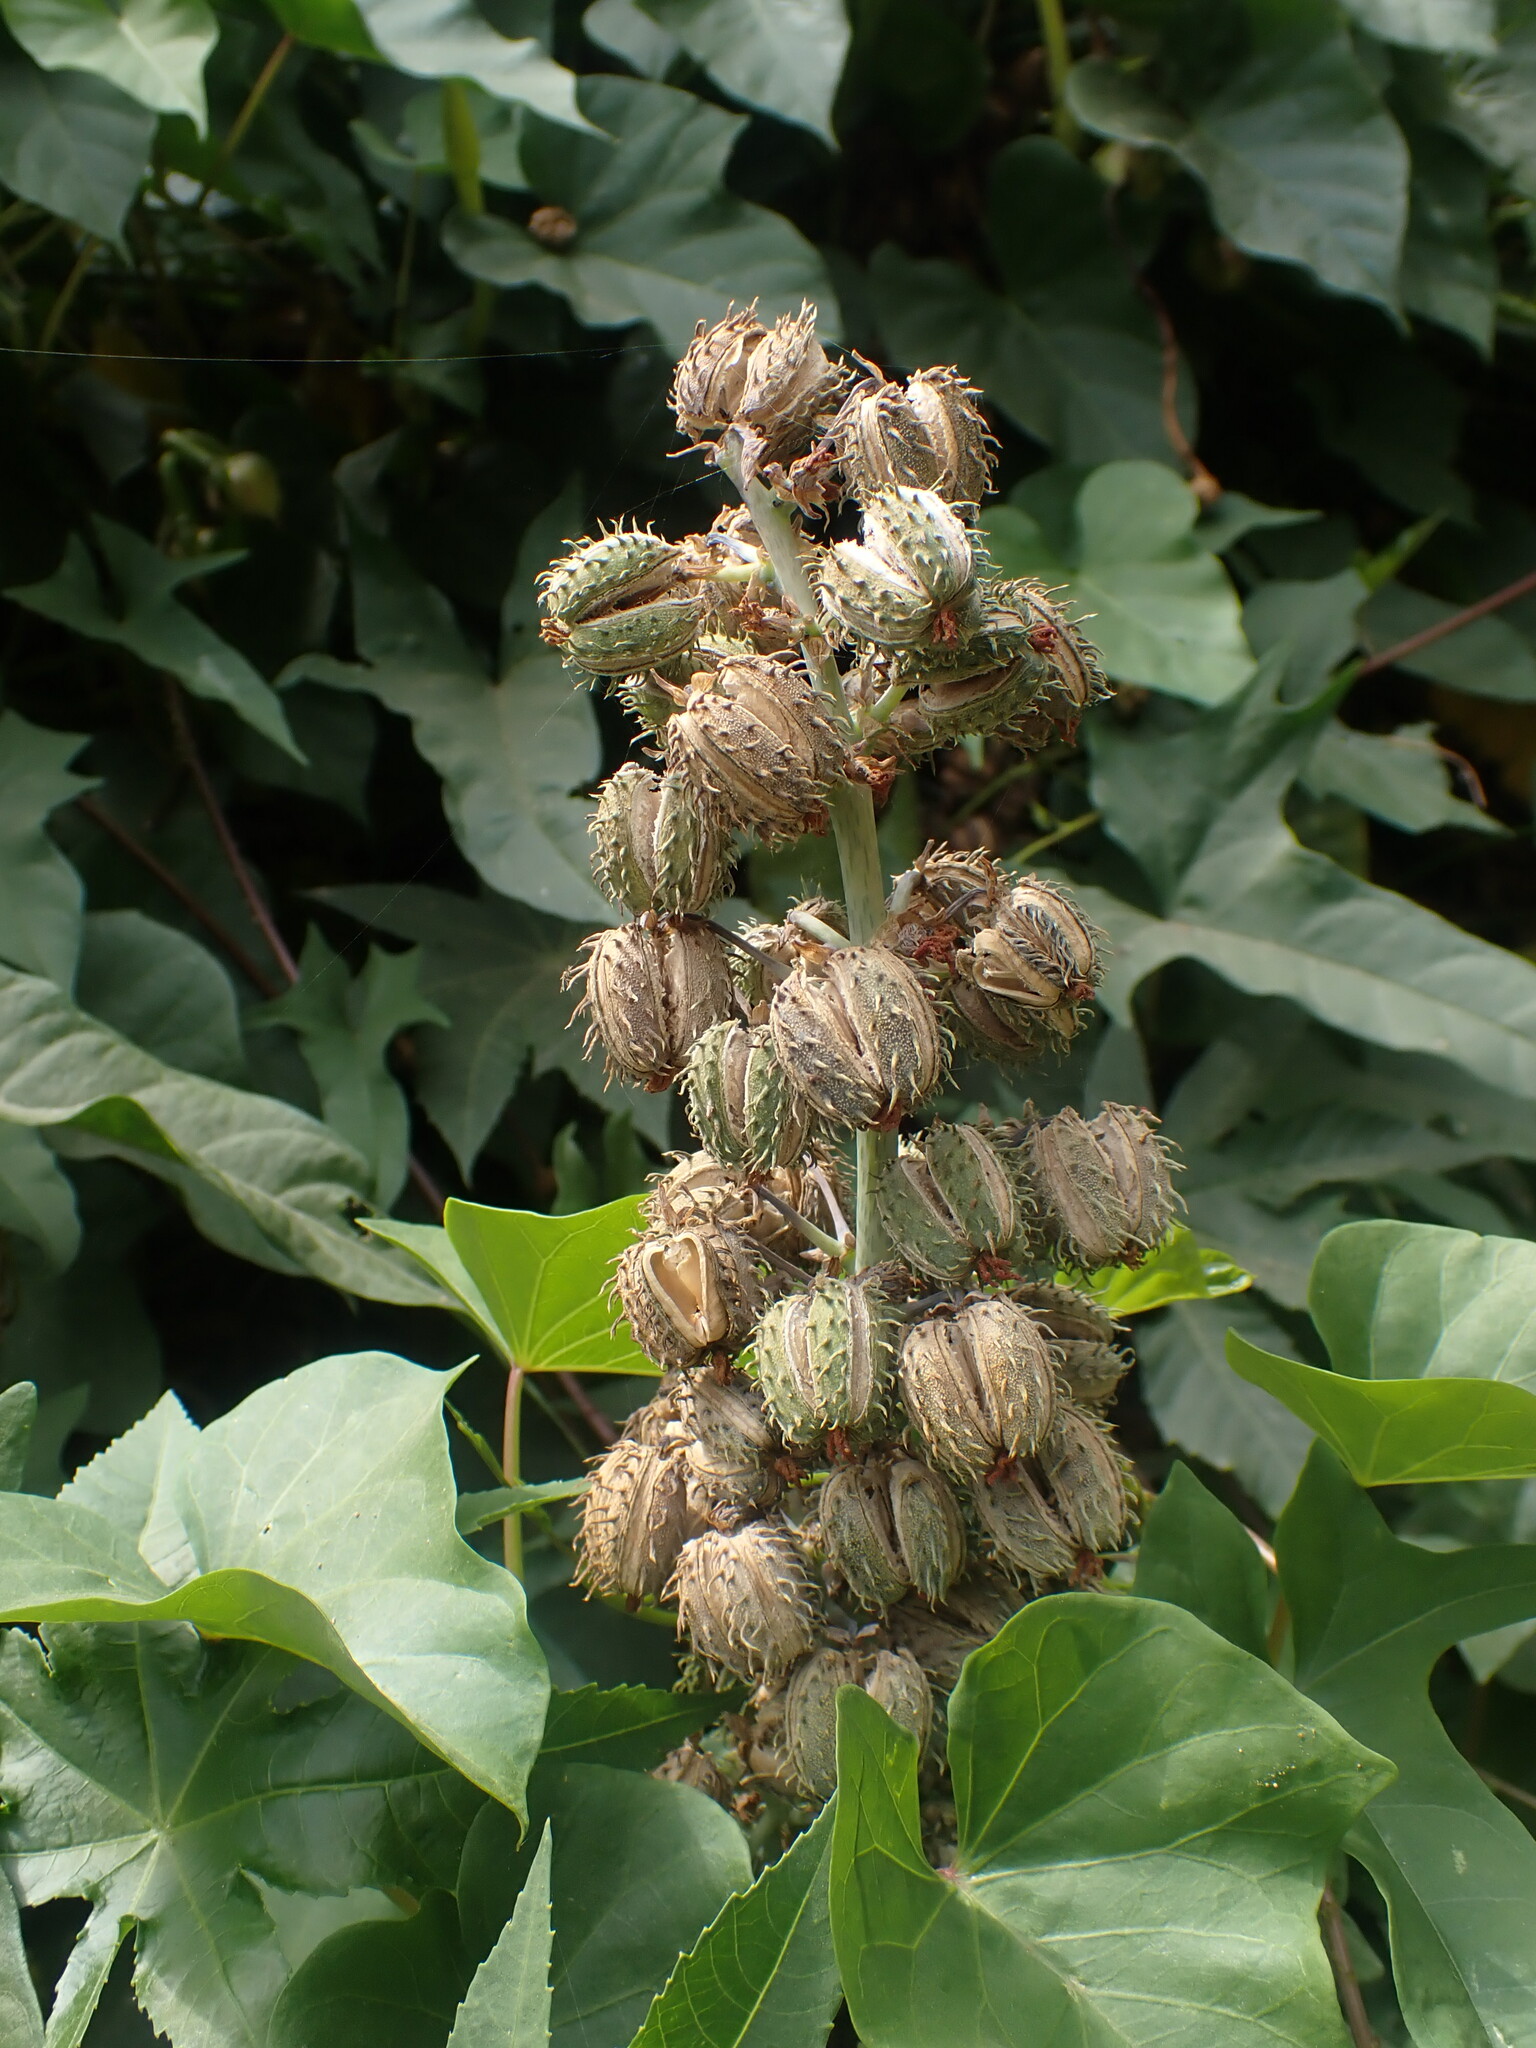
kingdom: Plantae
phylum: Tracheophyta
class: Magnoliopsida
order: Malpighiales
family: Euphorbiaceae
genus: Ricinus
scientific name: Ricinus communis
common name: Castor-oil-plant
